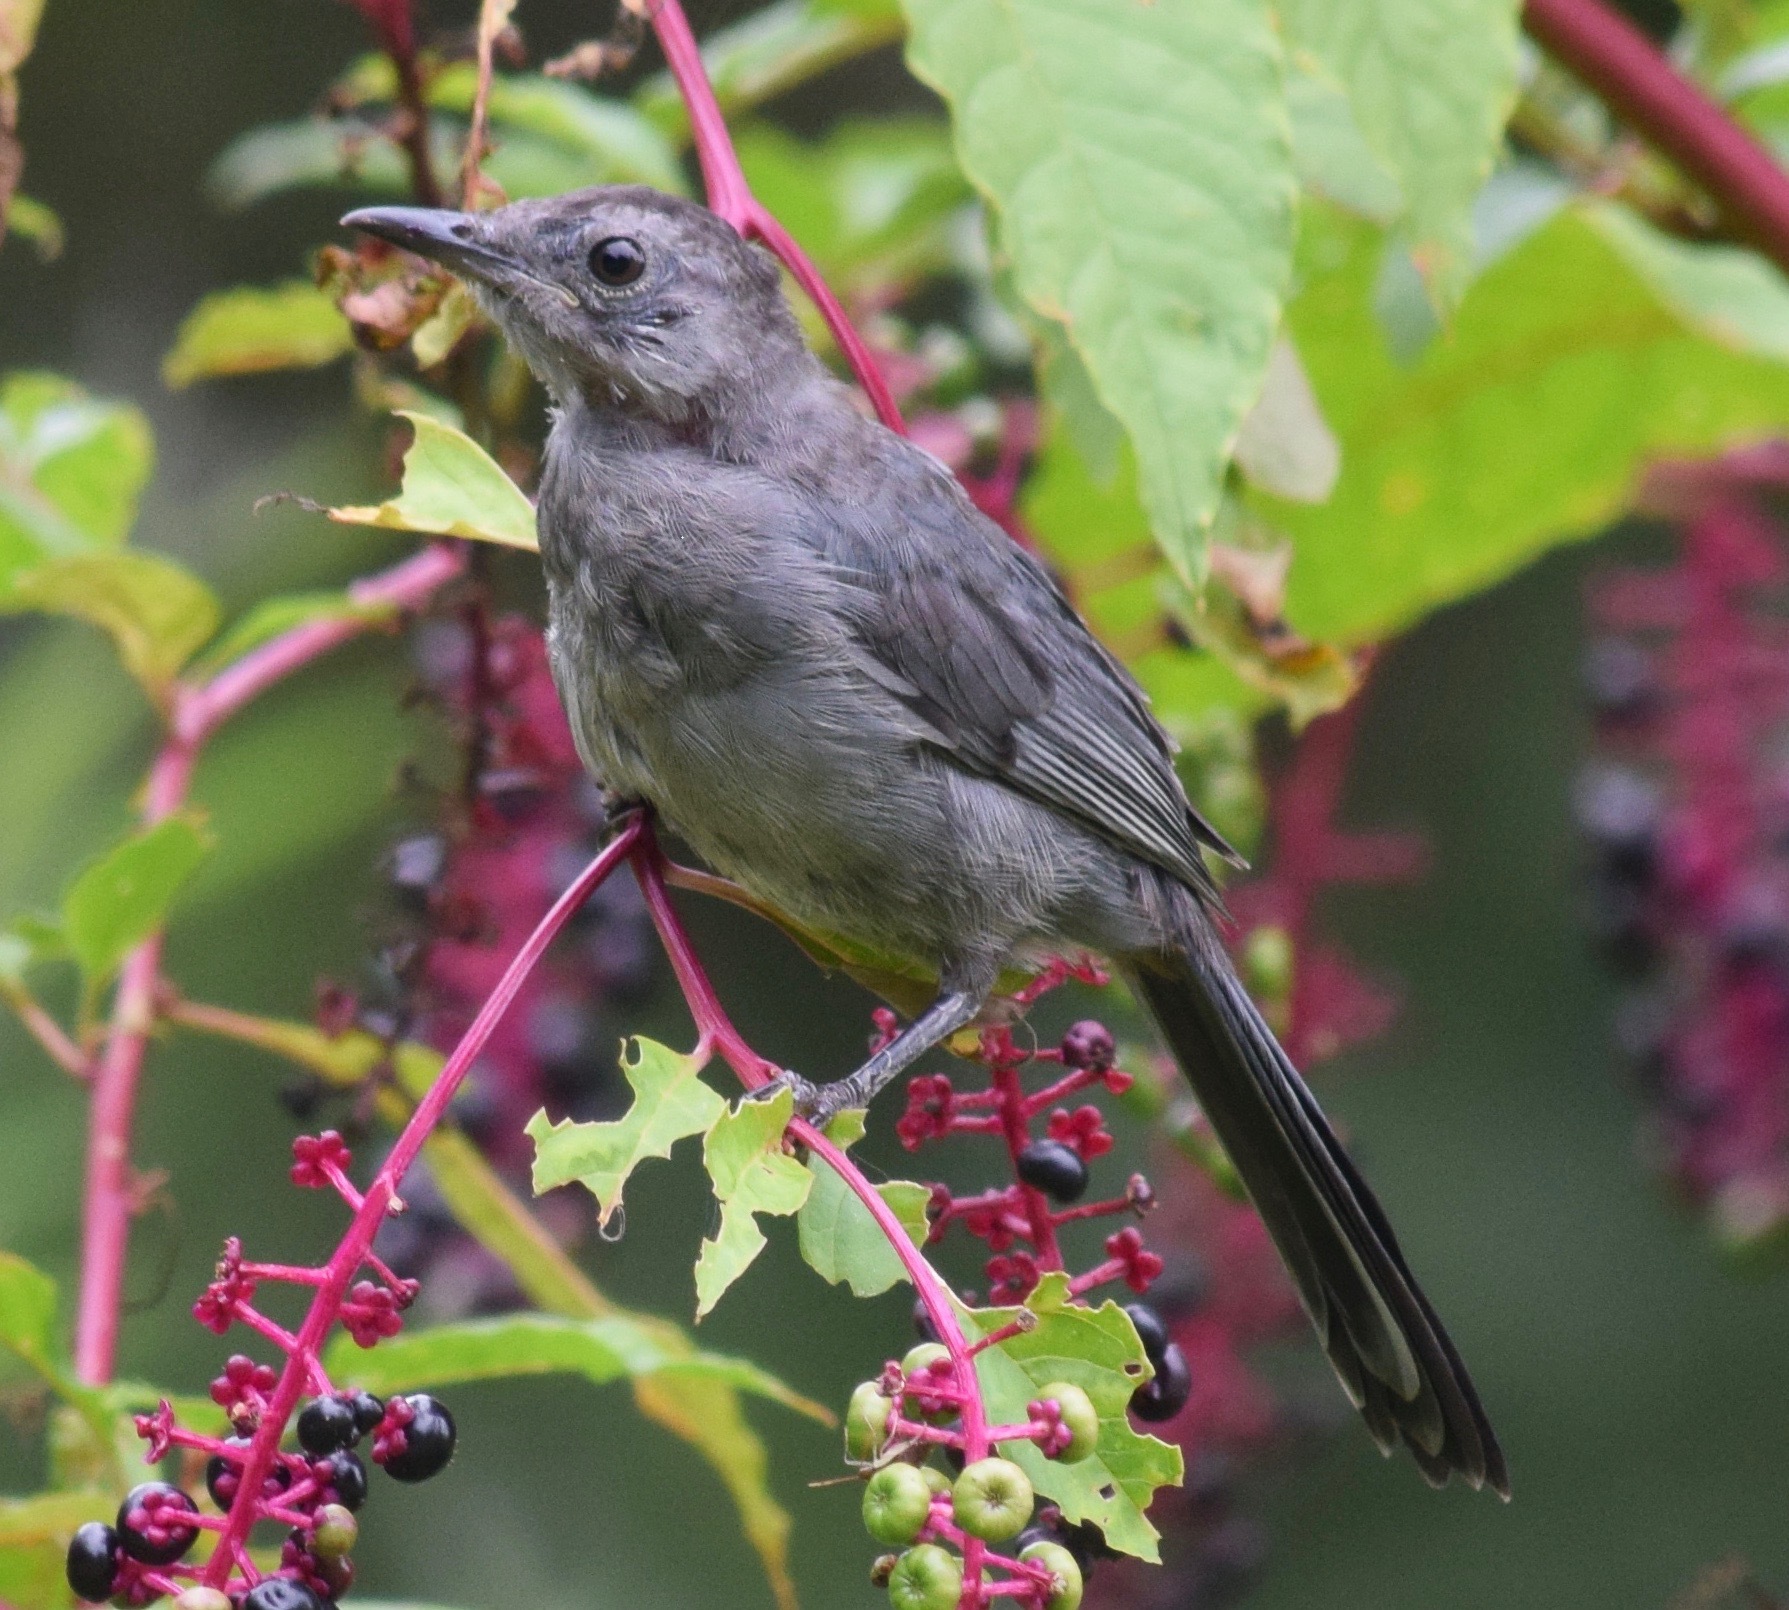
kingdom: Animalia
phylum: Chordata
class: Aves
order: Passeriformes
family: Mimidae
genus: Dumetella
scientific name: Dumetella carolinensis
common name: Gray catbird
